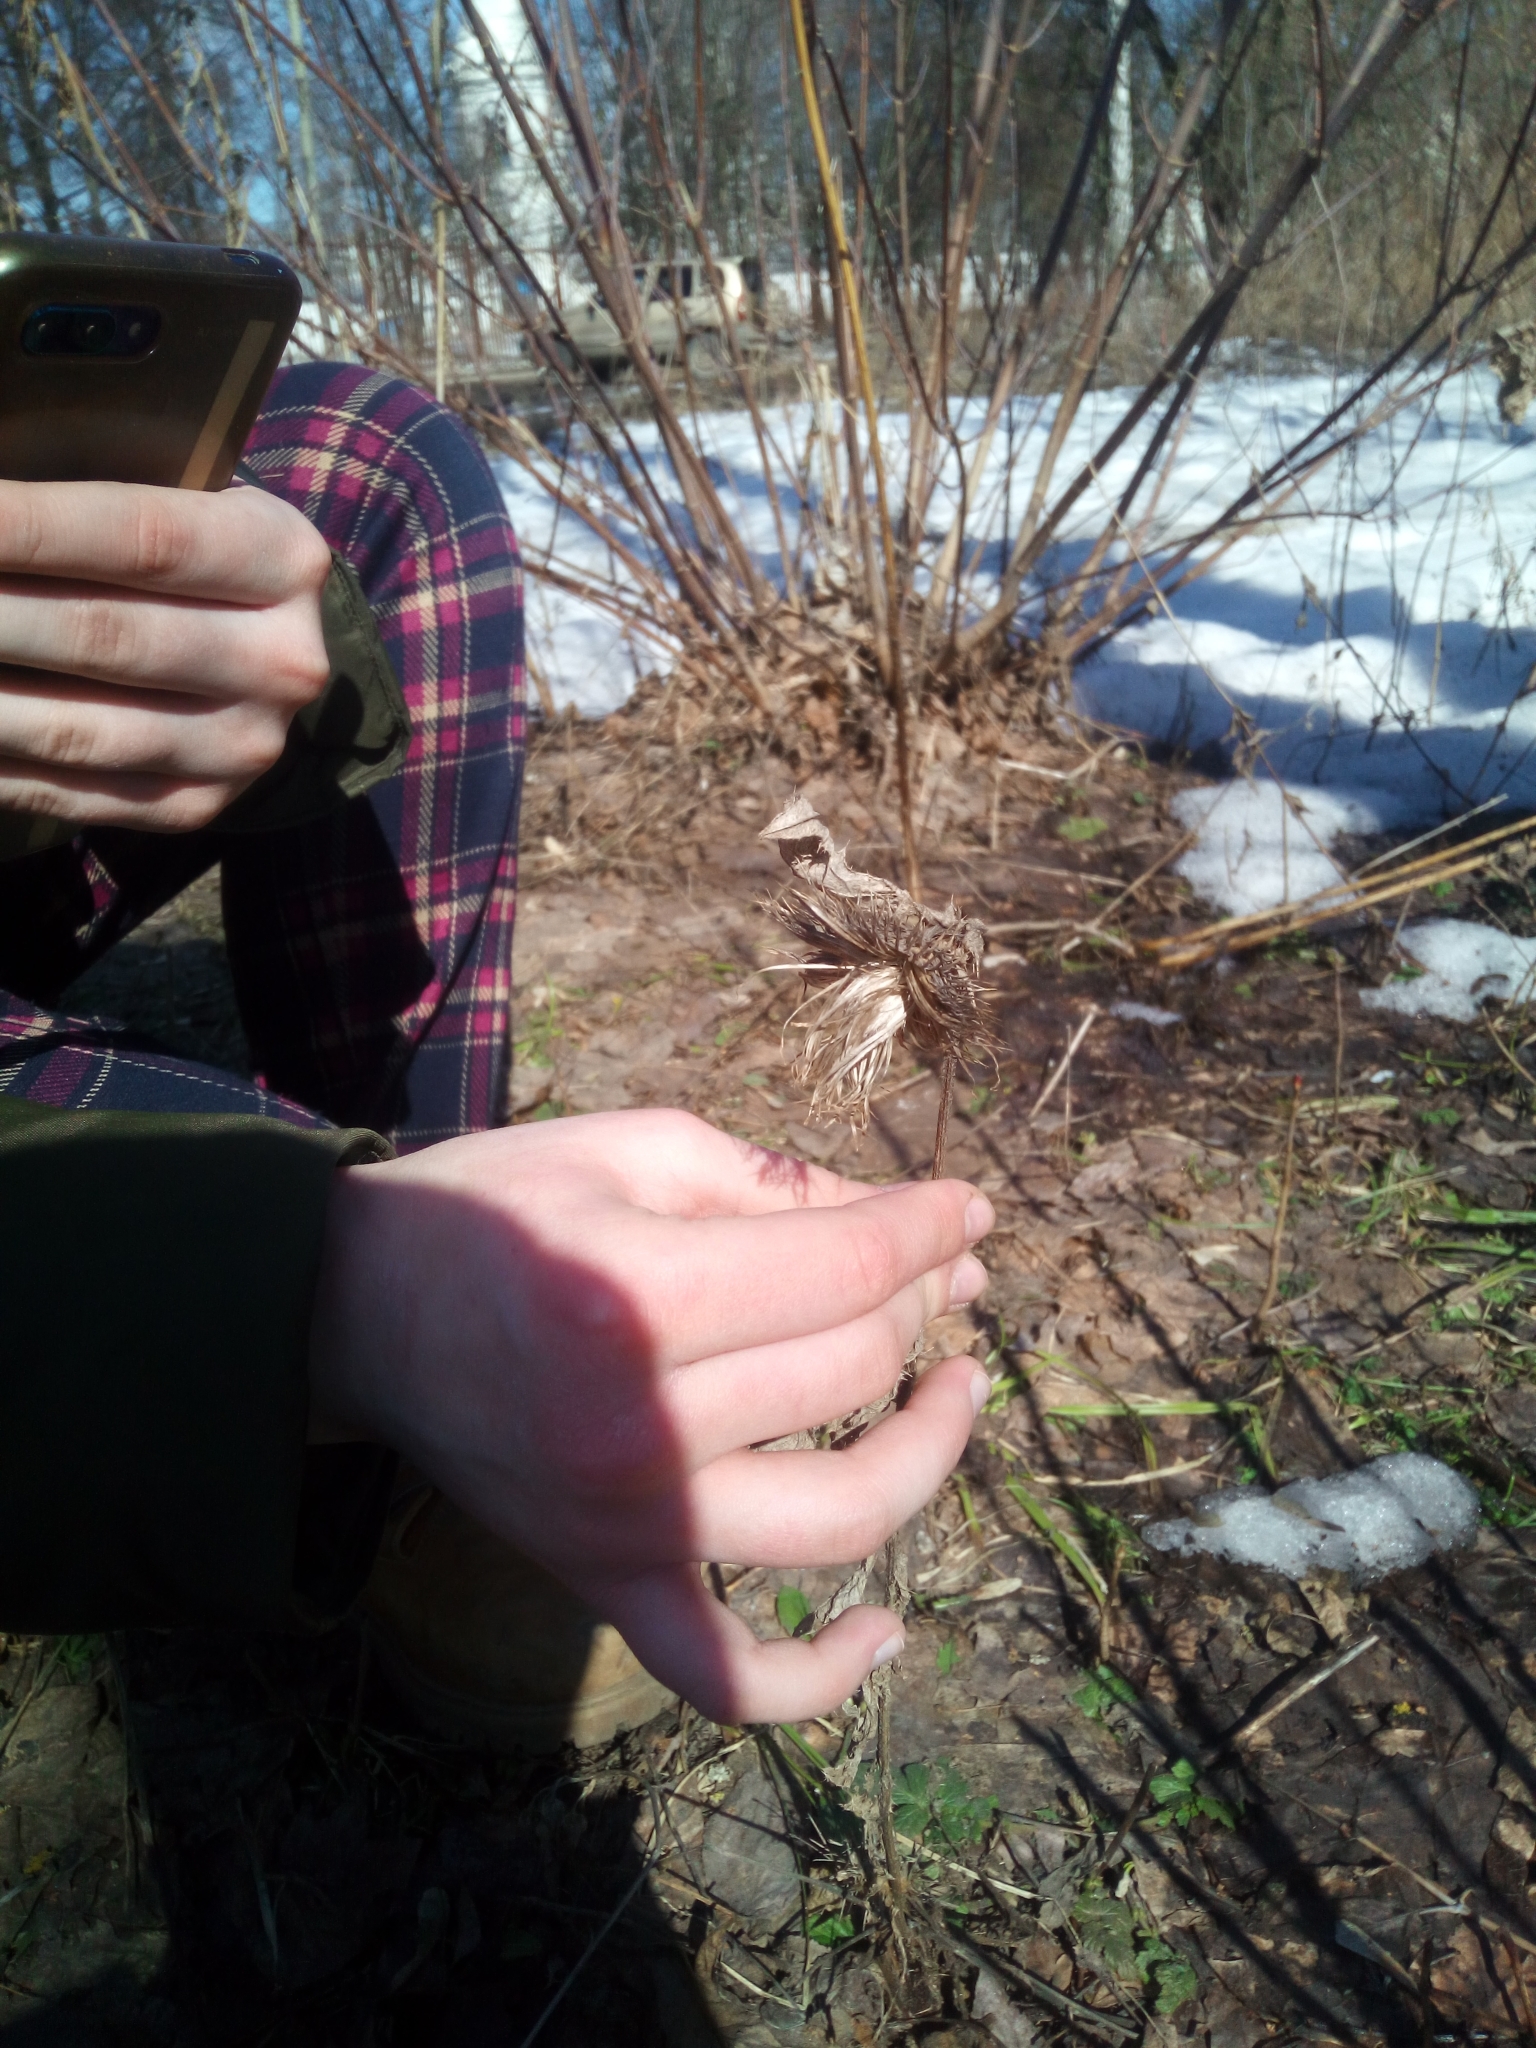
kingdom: Plantae
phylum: Tracheophyta
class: Magnoliopsida
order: Asterales
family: Asteraceae
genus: Cirsium
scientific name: Cirsium vulgare
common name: Bull thistle
